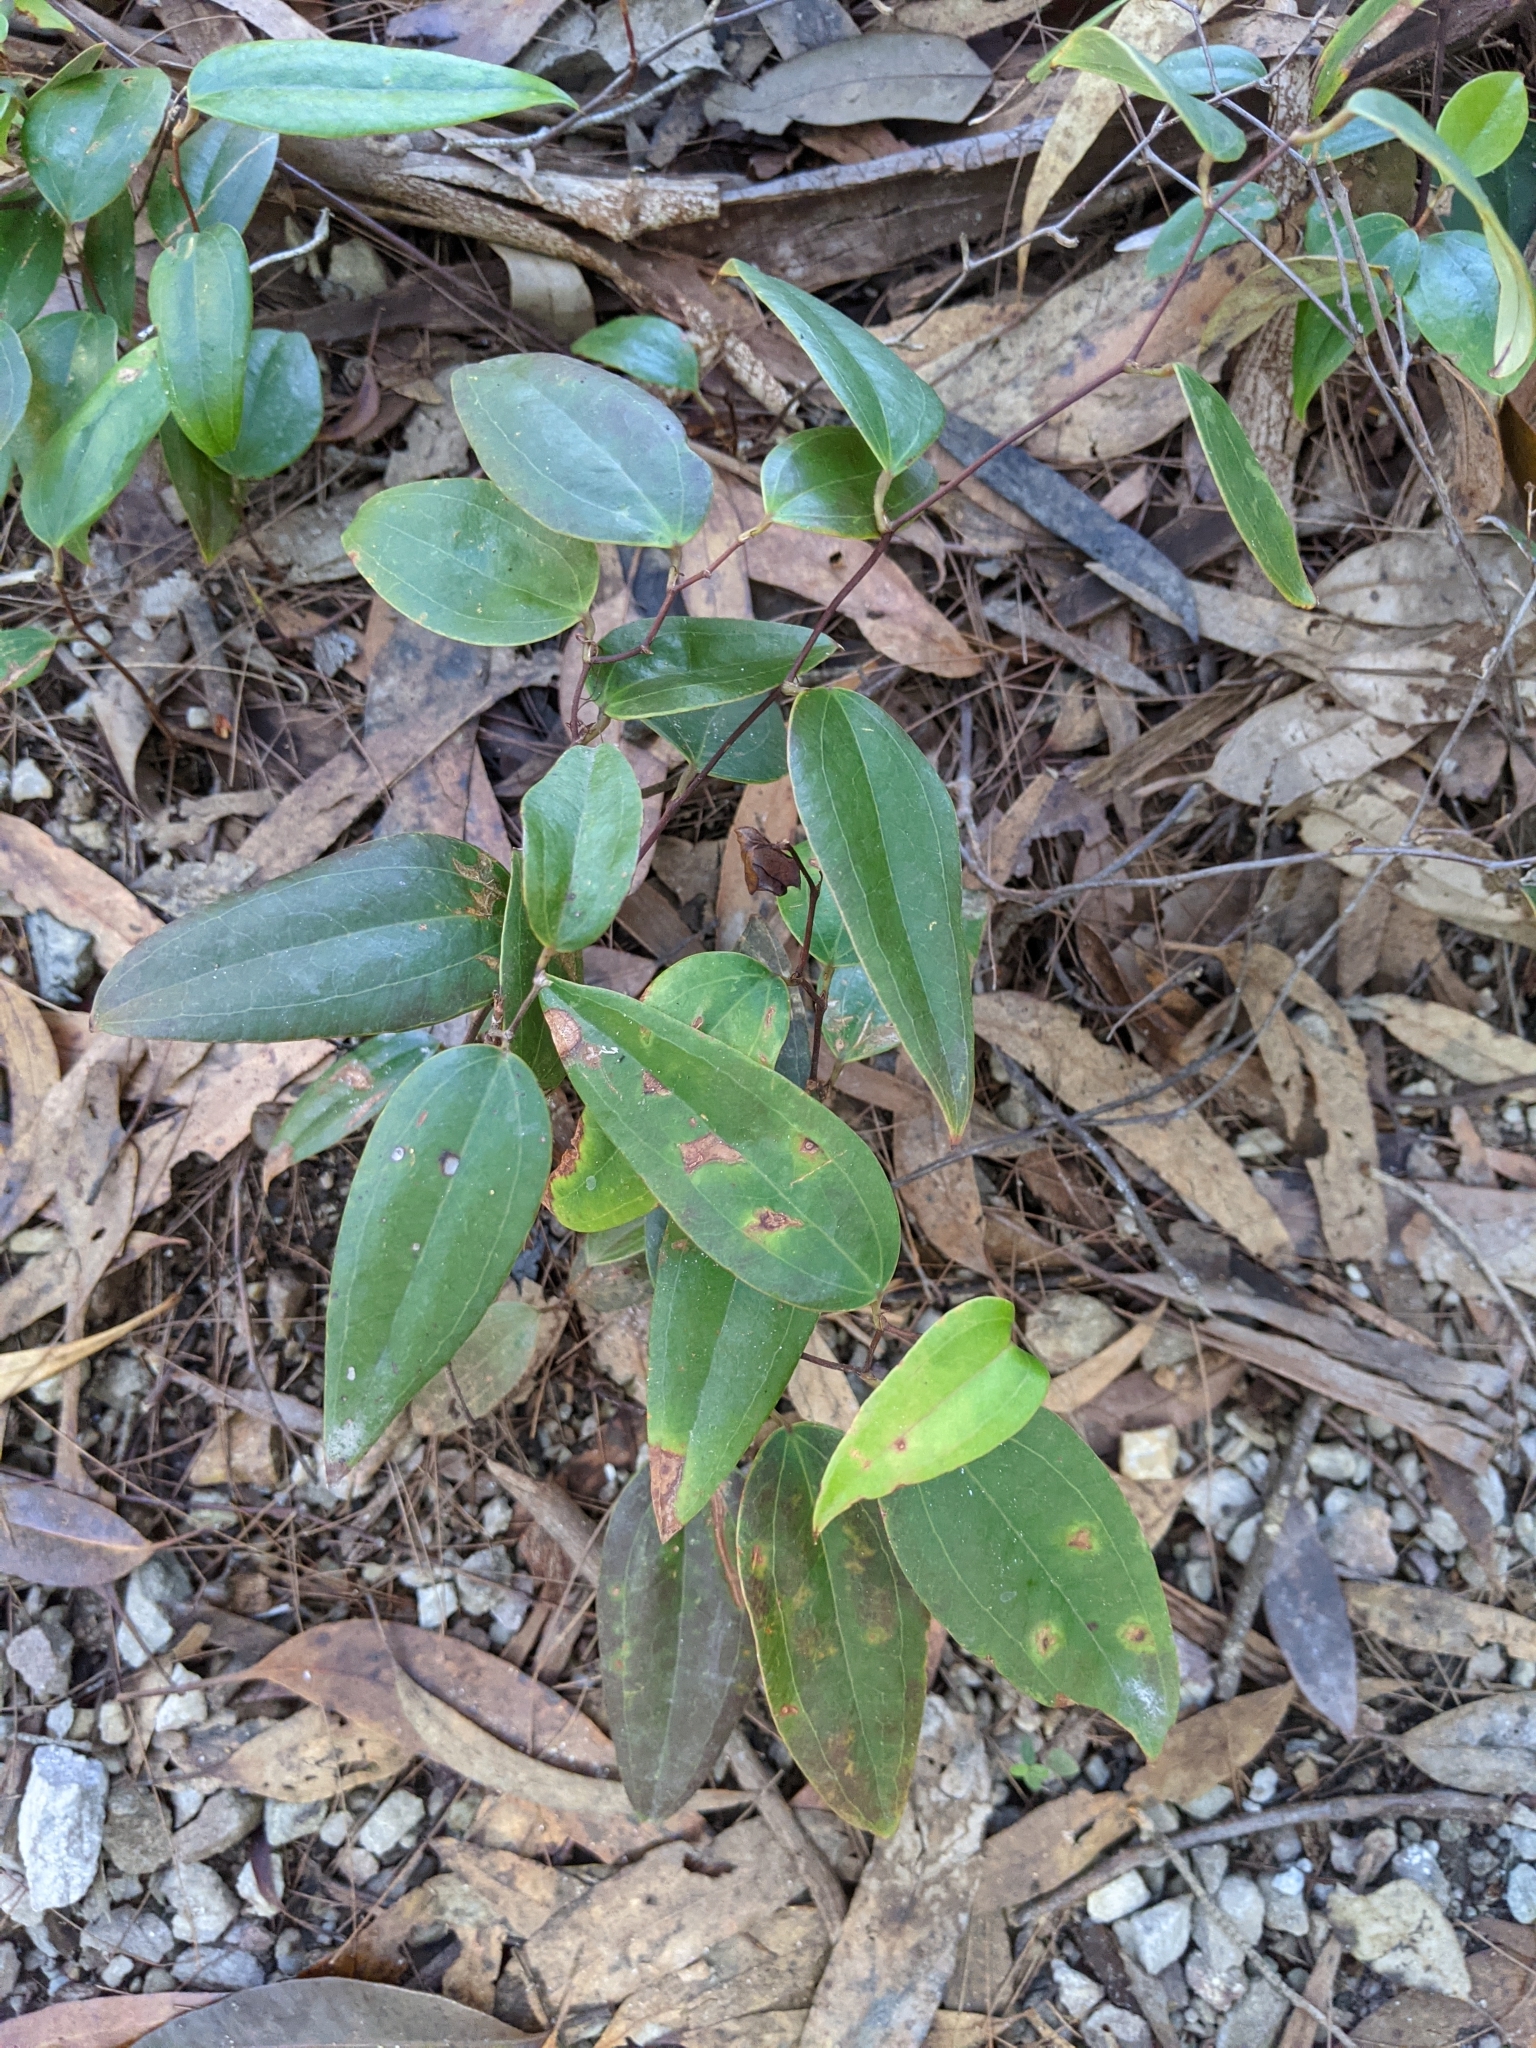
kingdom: Plantae
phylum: Tracheophyta
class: Liliopsida
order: Liliales
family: Smilacaceae
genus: Smilax
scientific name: Smilax glyciphylla
